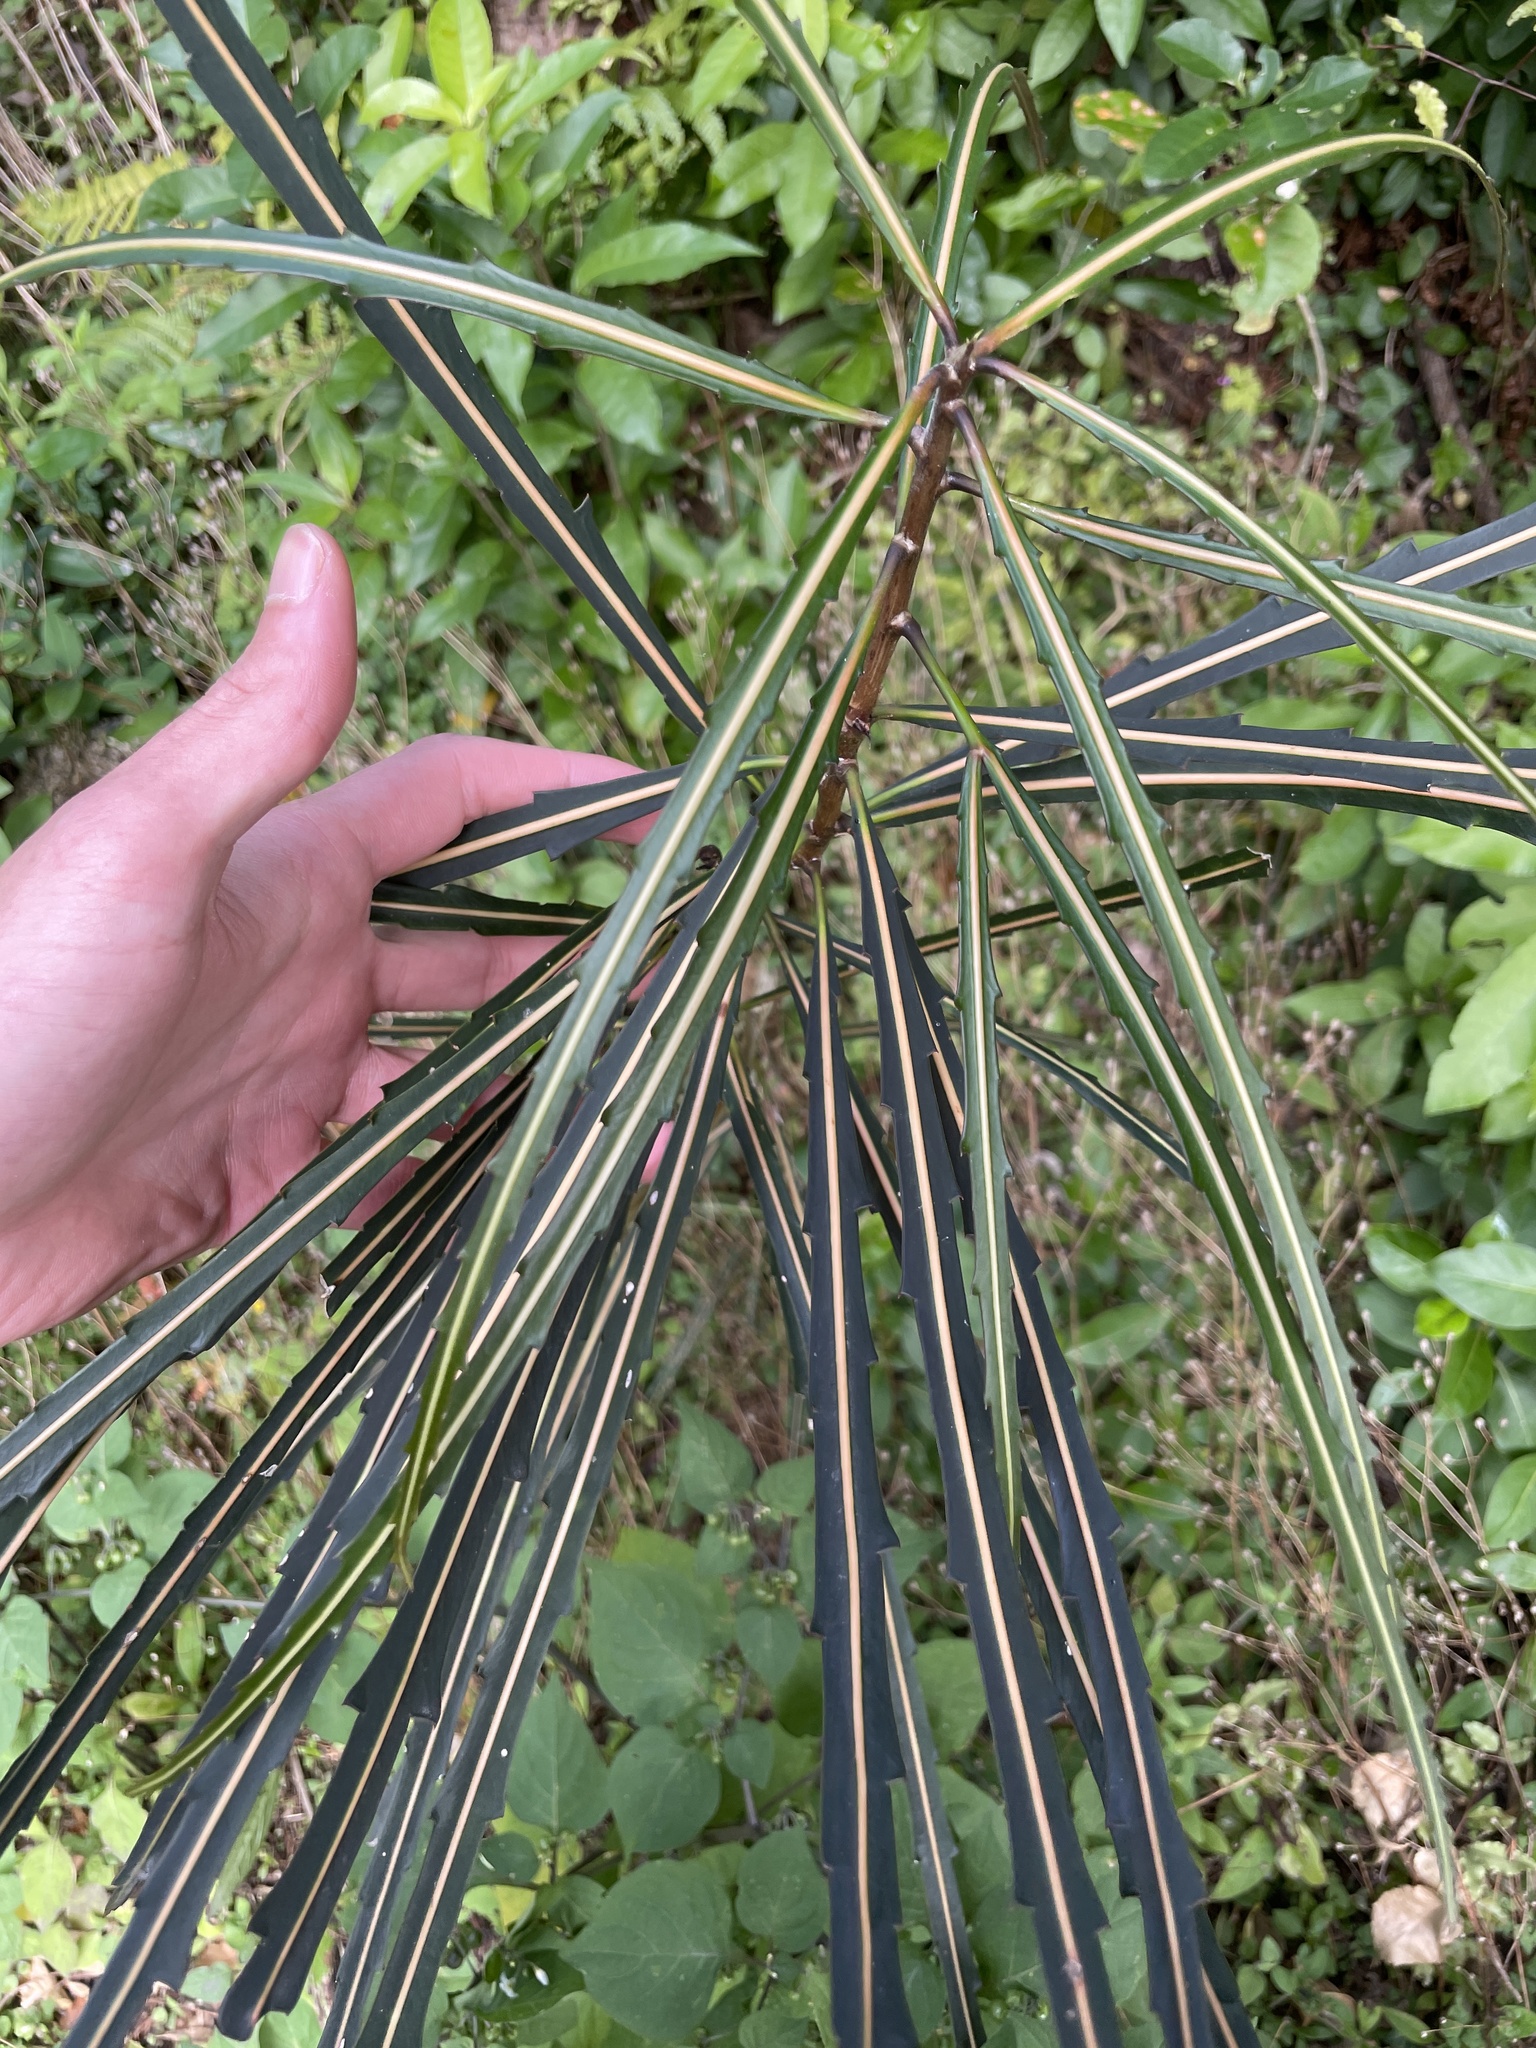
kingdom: Plantae
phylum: Tracheophyta
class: Magnoliopsida
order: Apiales
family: Araliaceae
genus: Pseudopanax
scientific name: Pseudopanax crassifolius
